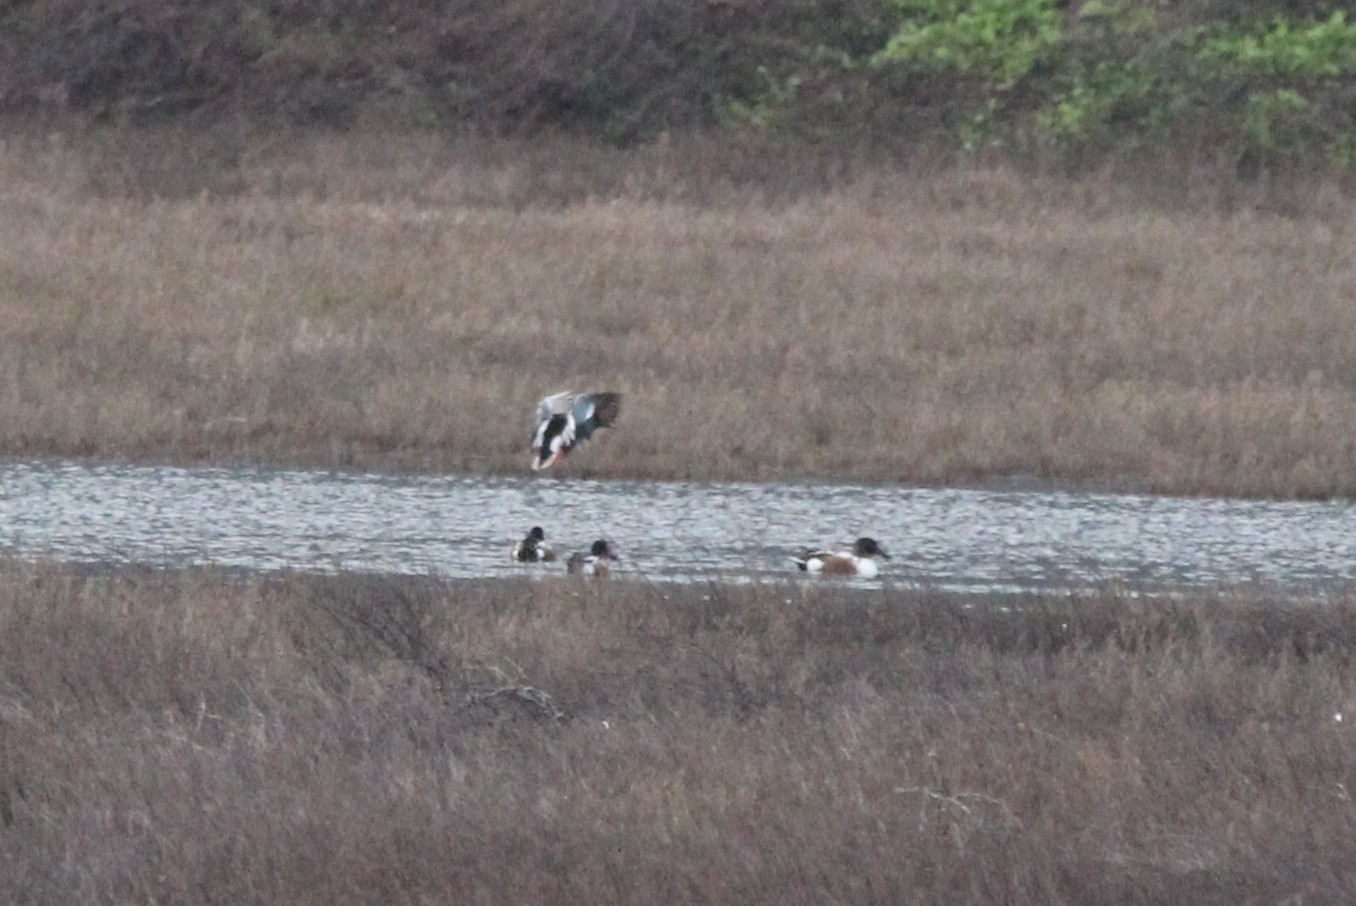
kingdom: Animalia
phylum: Chordata
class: Aves
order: Anseriformes
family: Anatidae
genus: Spatula
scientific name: Spatula clypeata
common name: Northern shoveler
